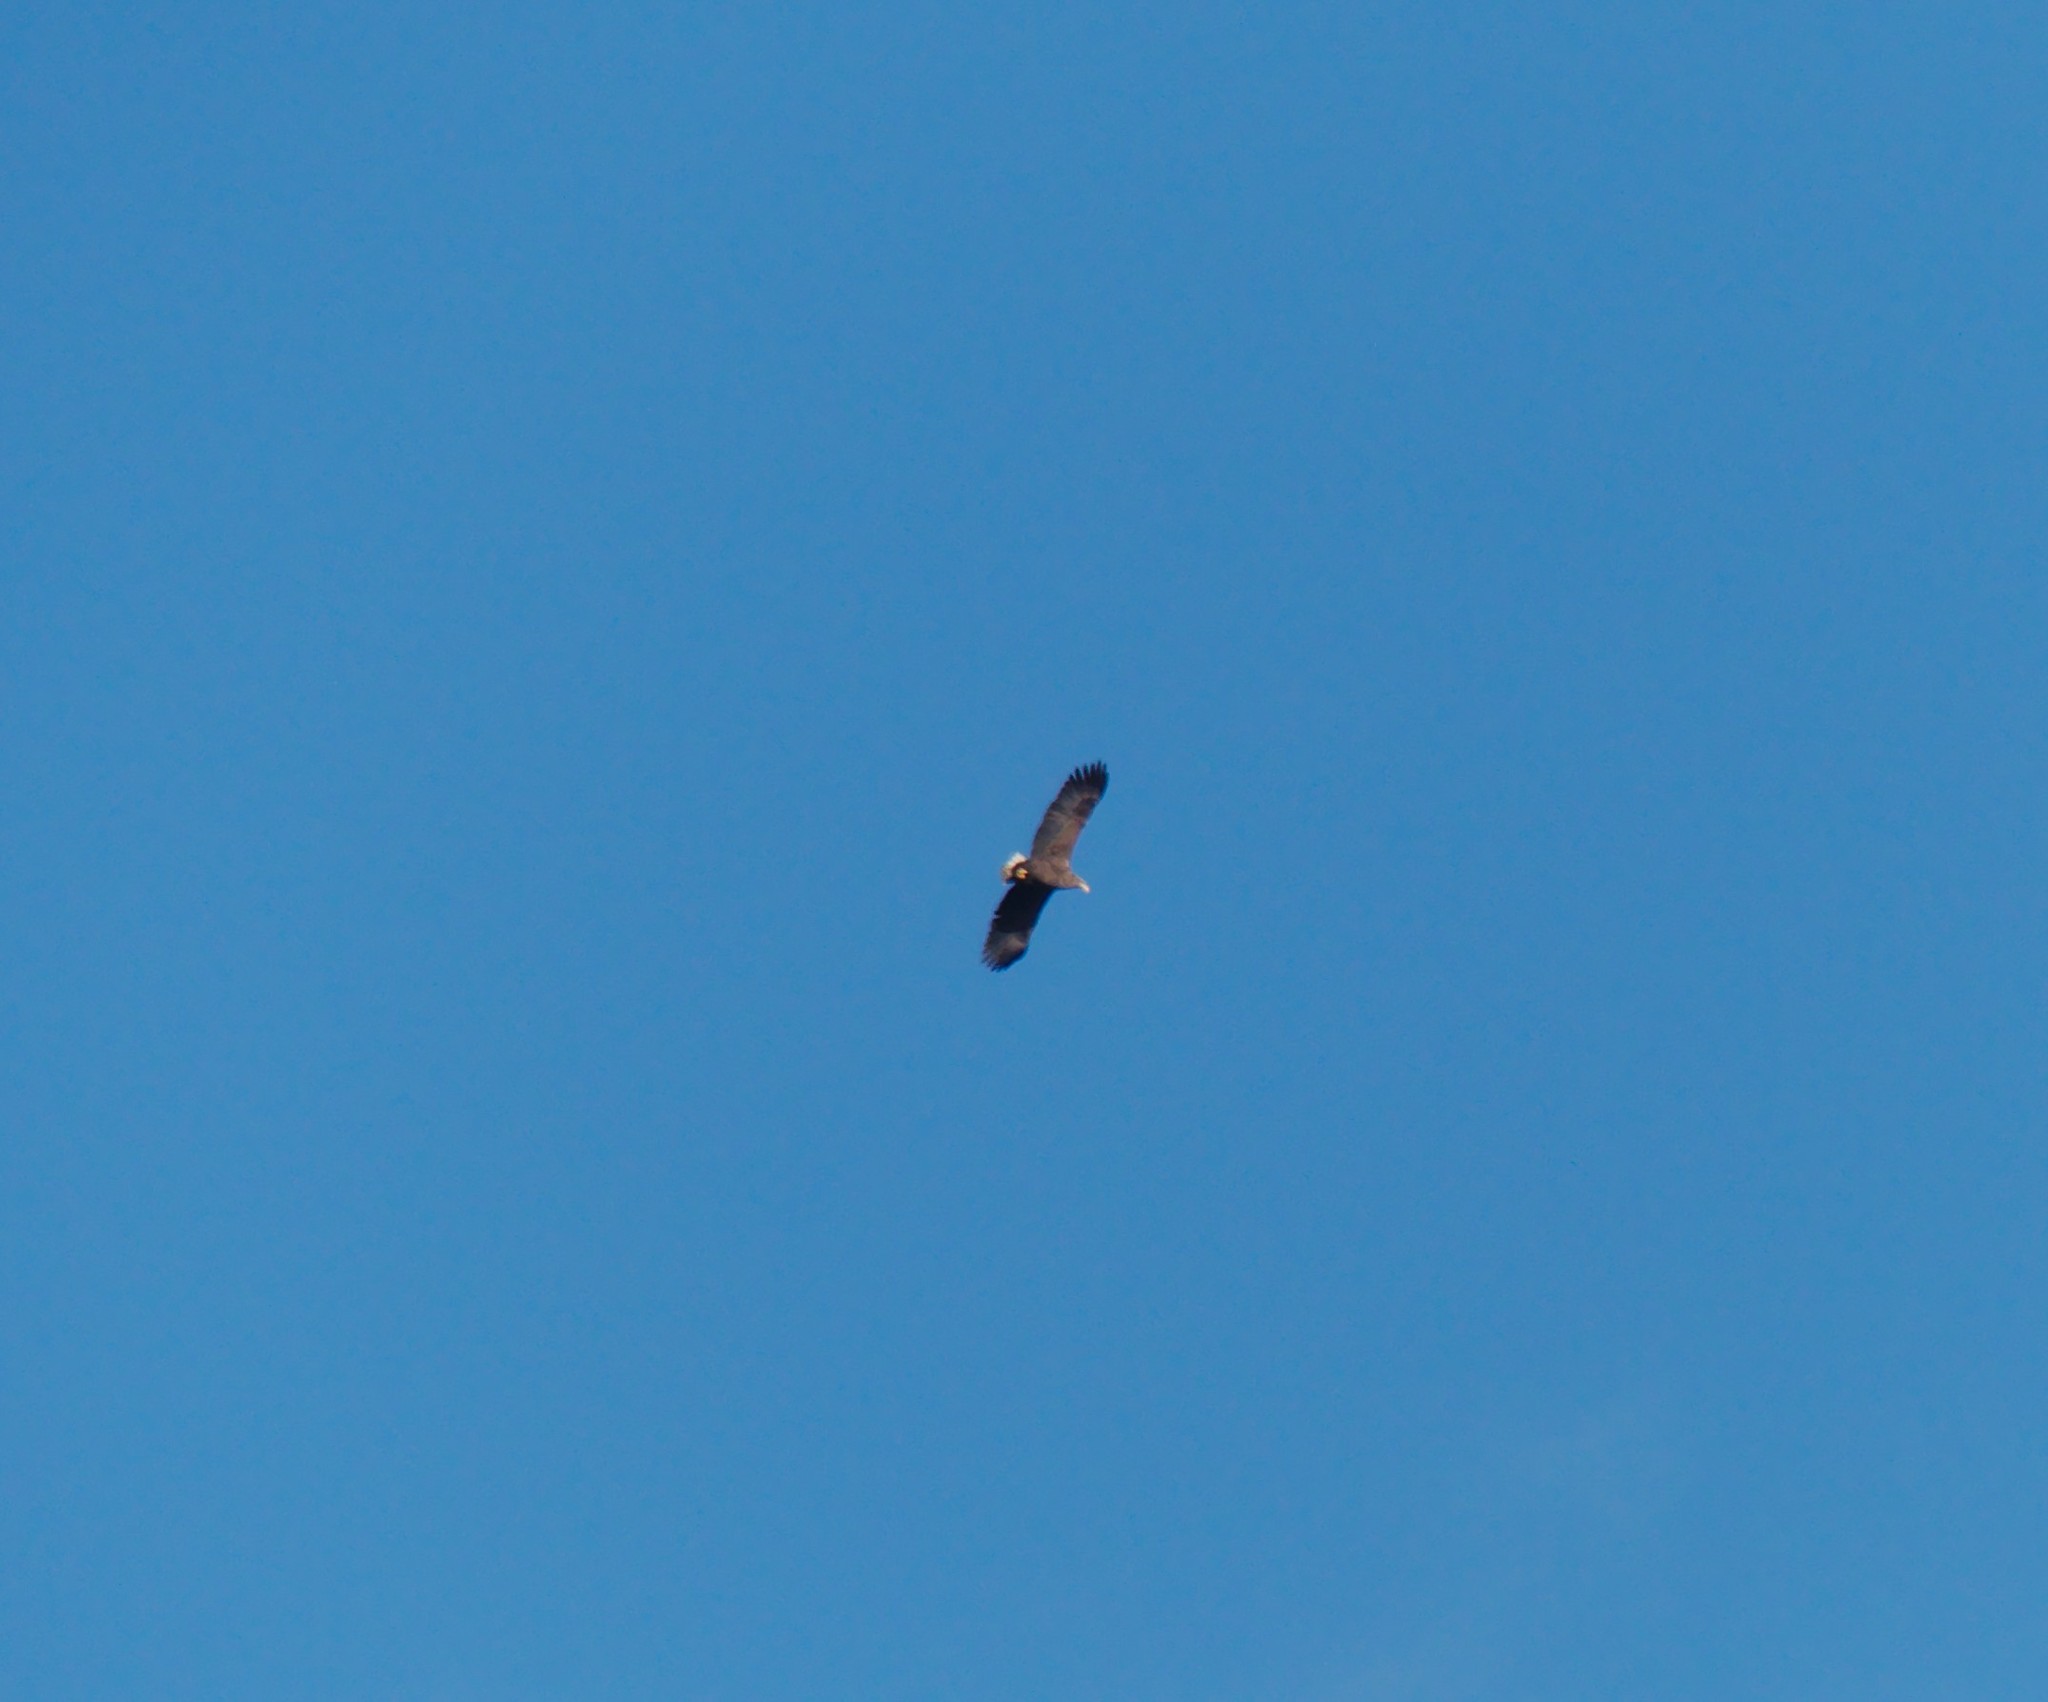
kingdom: Animalia
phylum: Chordata
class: Aves
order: Accipitriformes
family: Accipitridae
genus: Haliaeetus
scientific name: Haliaeetus albicilla
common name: White-tailed eagle
